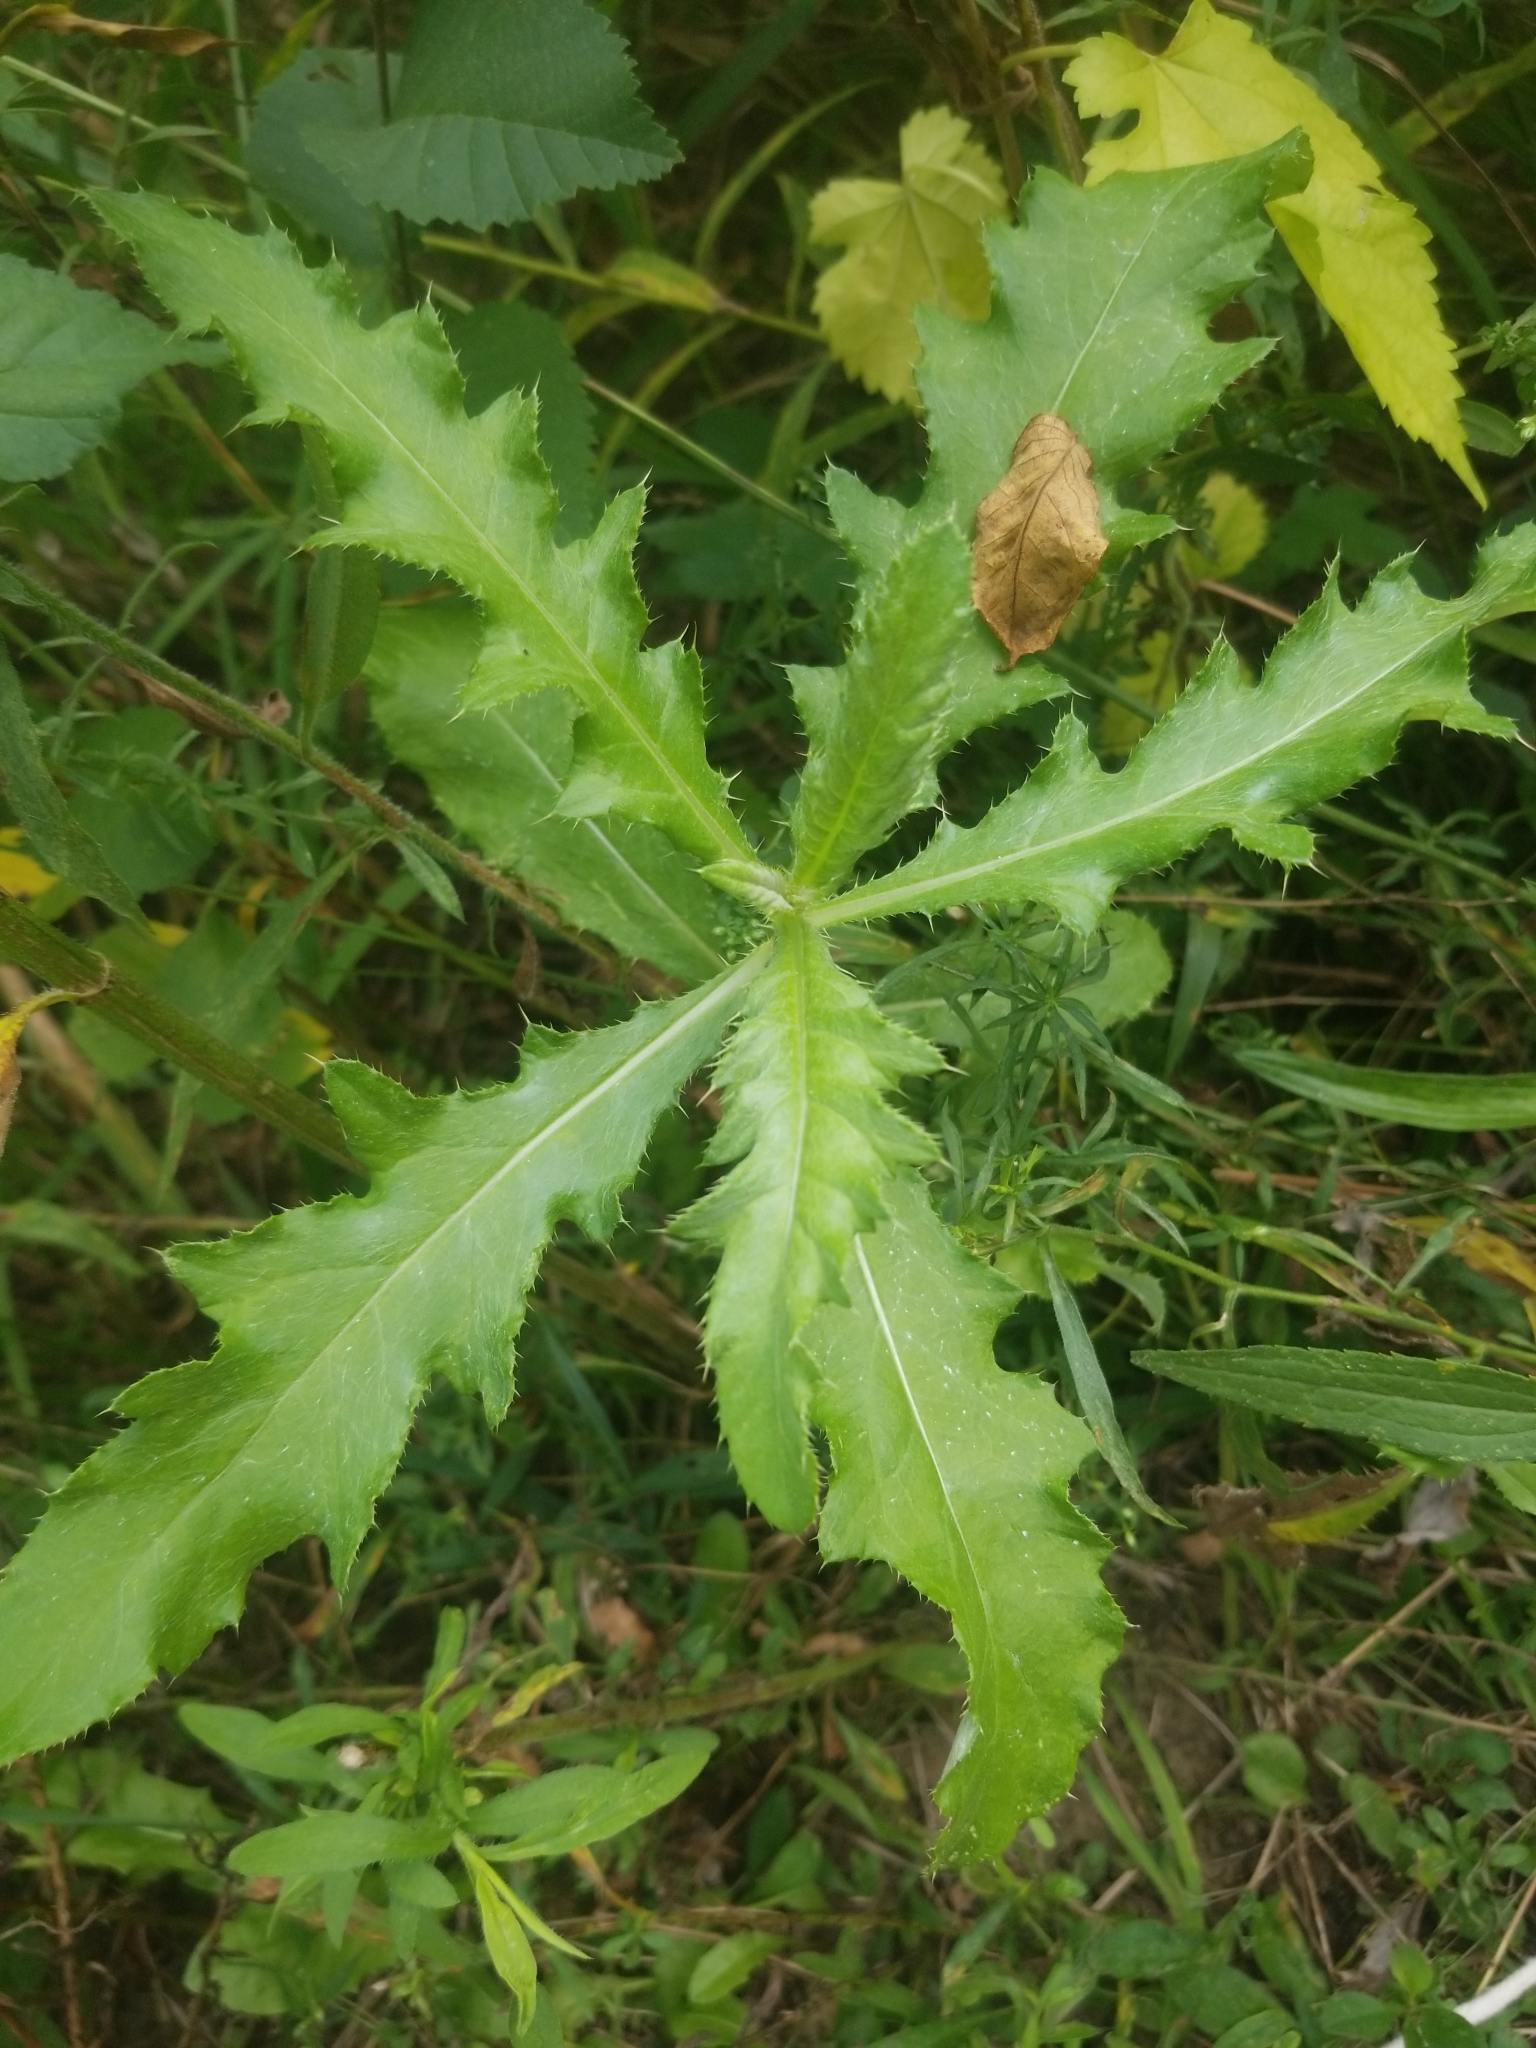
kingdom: Plantae
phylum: Tracheophyta
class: Magnoliopsida
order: Asterales
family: Asteraceae
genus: Cirsium
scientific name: Cirsium arvense
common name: Creeping thistle
